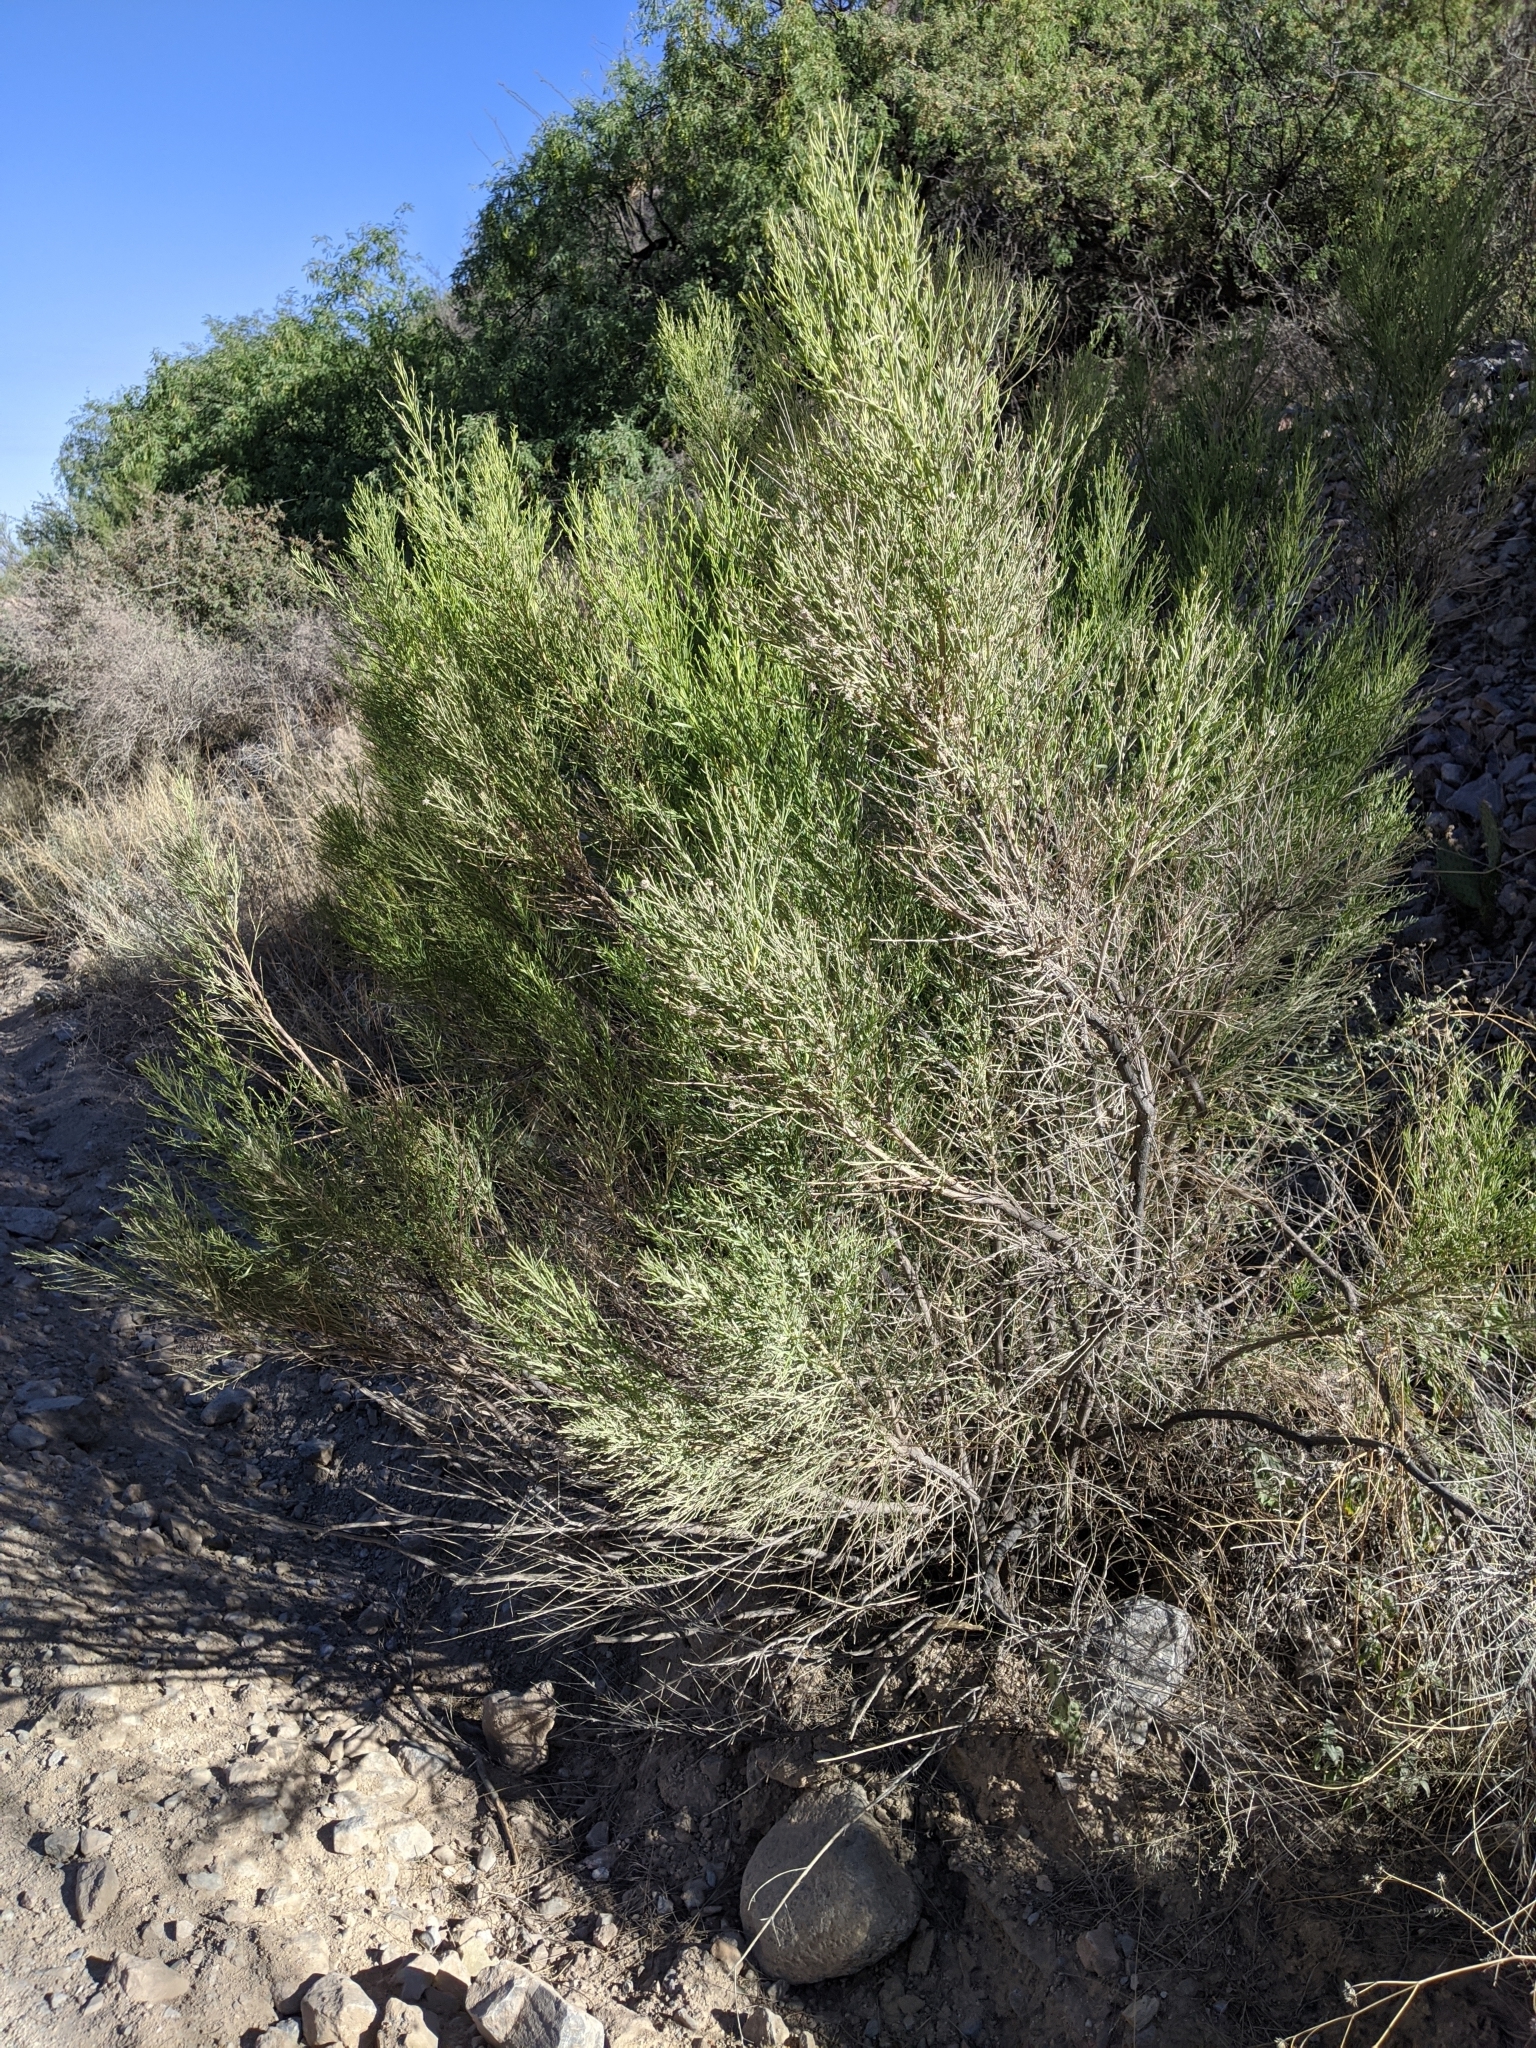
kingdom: Plantae
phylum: Tracheophyta
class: Magnoliopsida
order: Asterales
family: Asteraceae
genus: Baccharis
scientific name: Baccharis sarothroides
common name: Desert-broom
